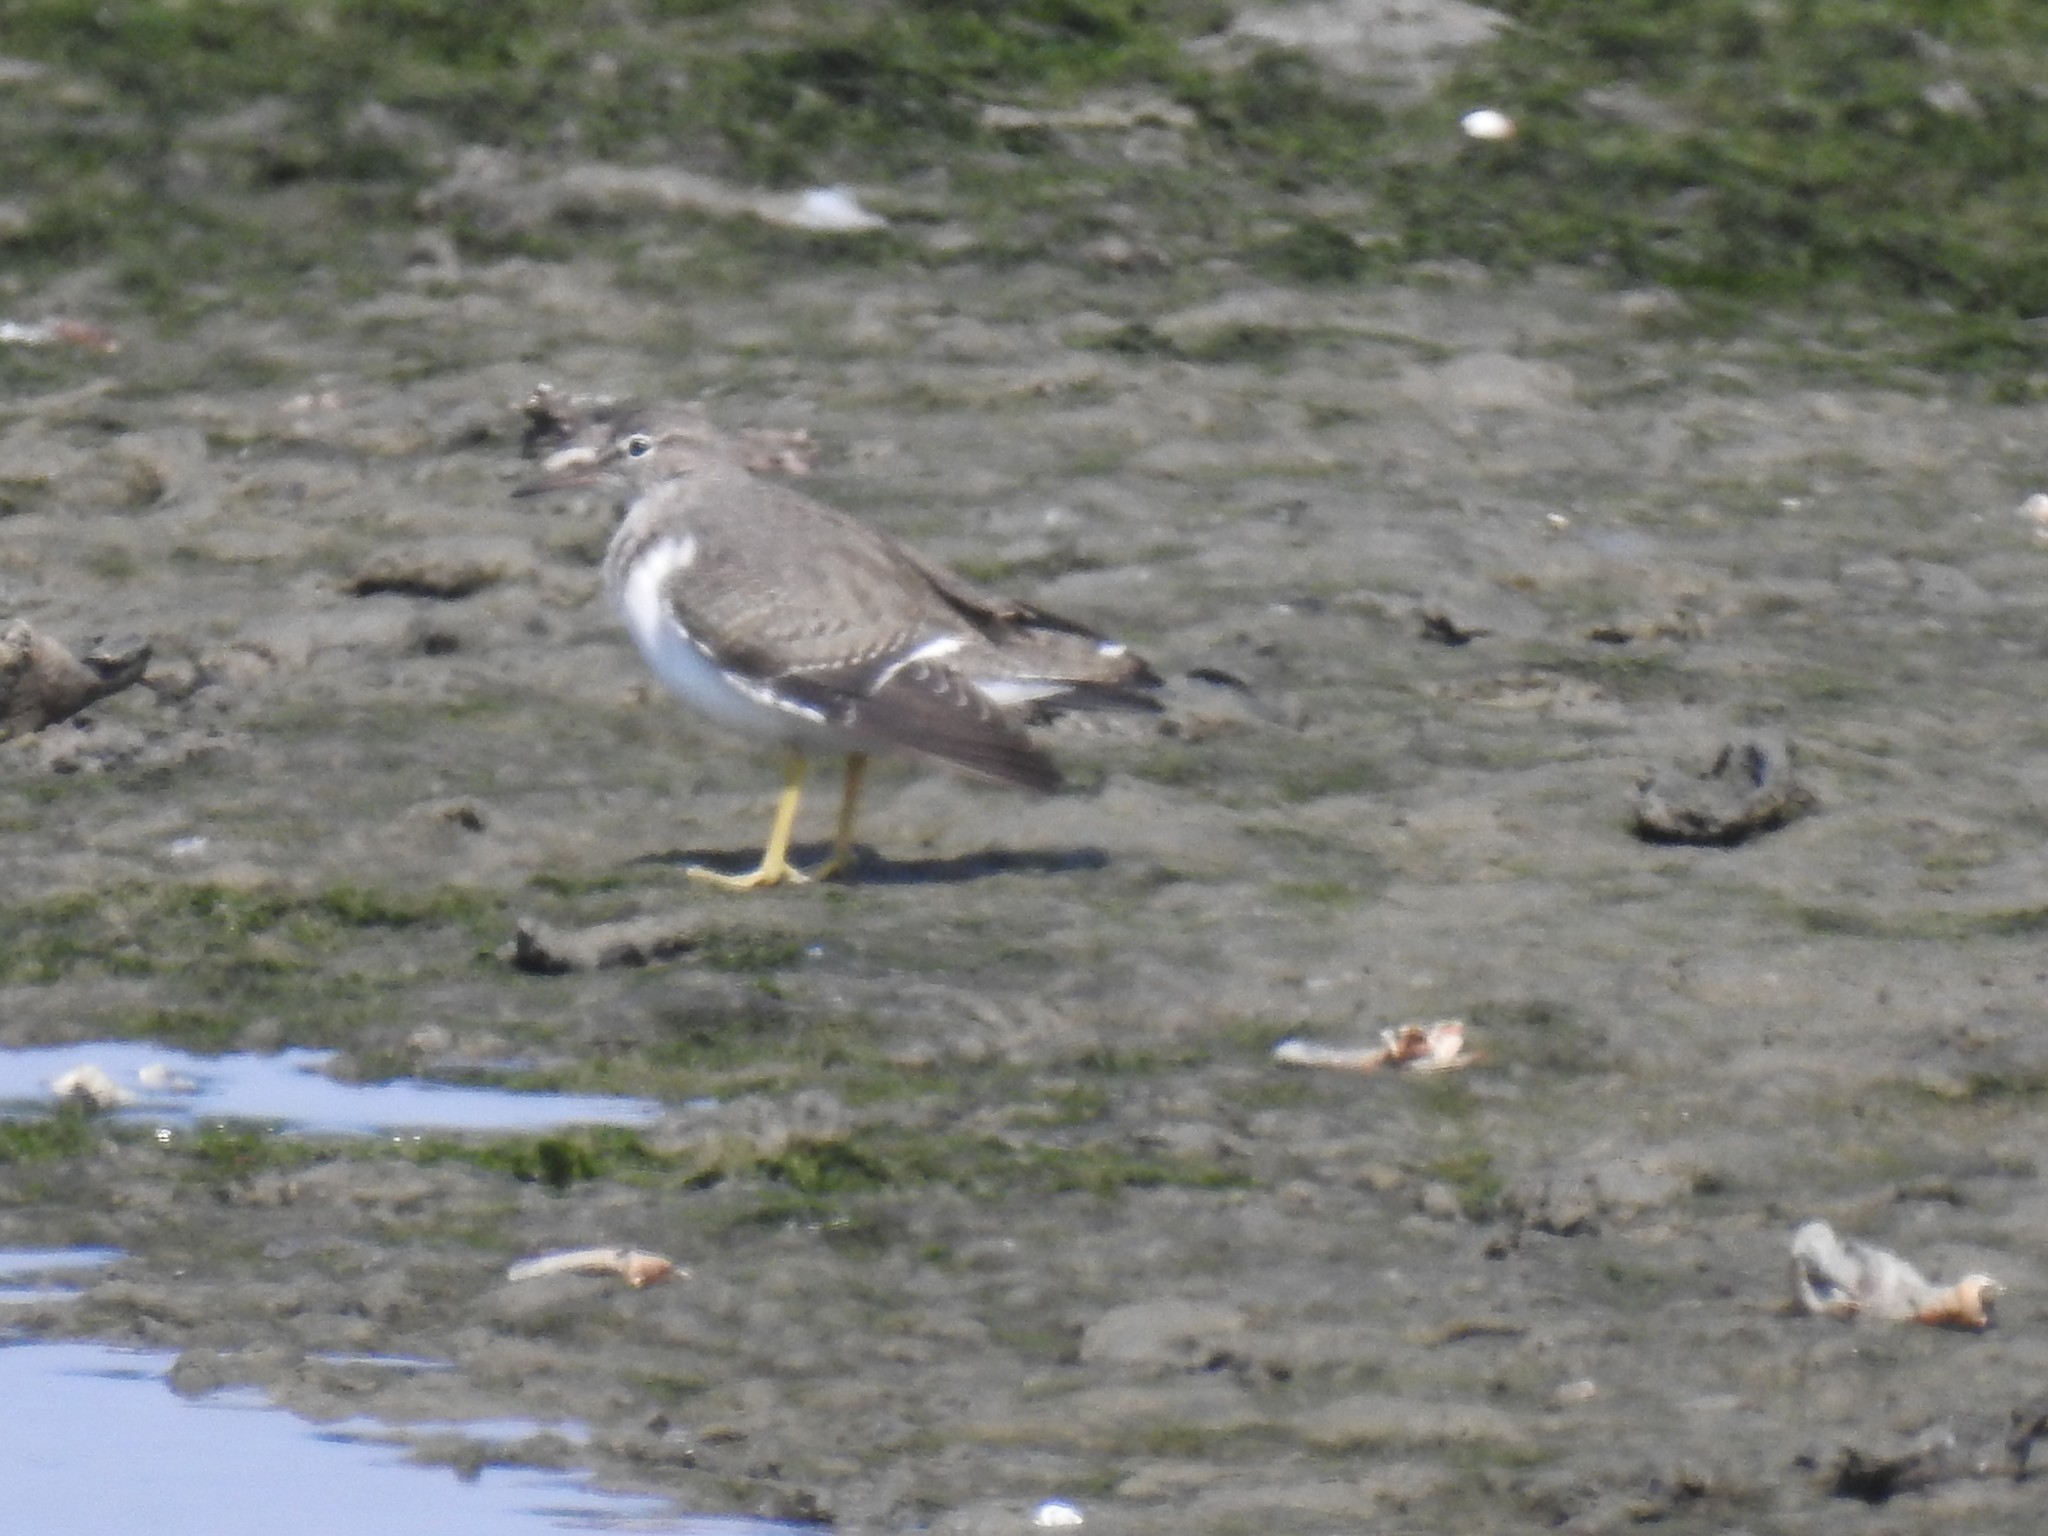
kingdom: Animalia
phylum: Chordata
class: Aves
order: Charadriiformes
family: Scolopacidae
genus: Actitis
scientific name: Actitis macularius
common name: Spotted sandpiper
